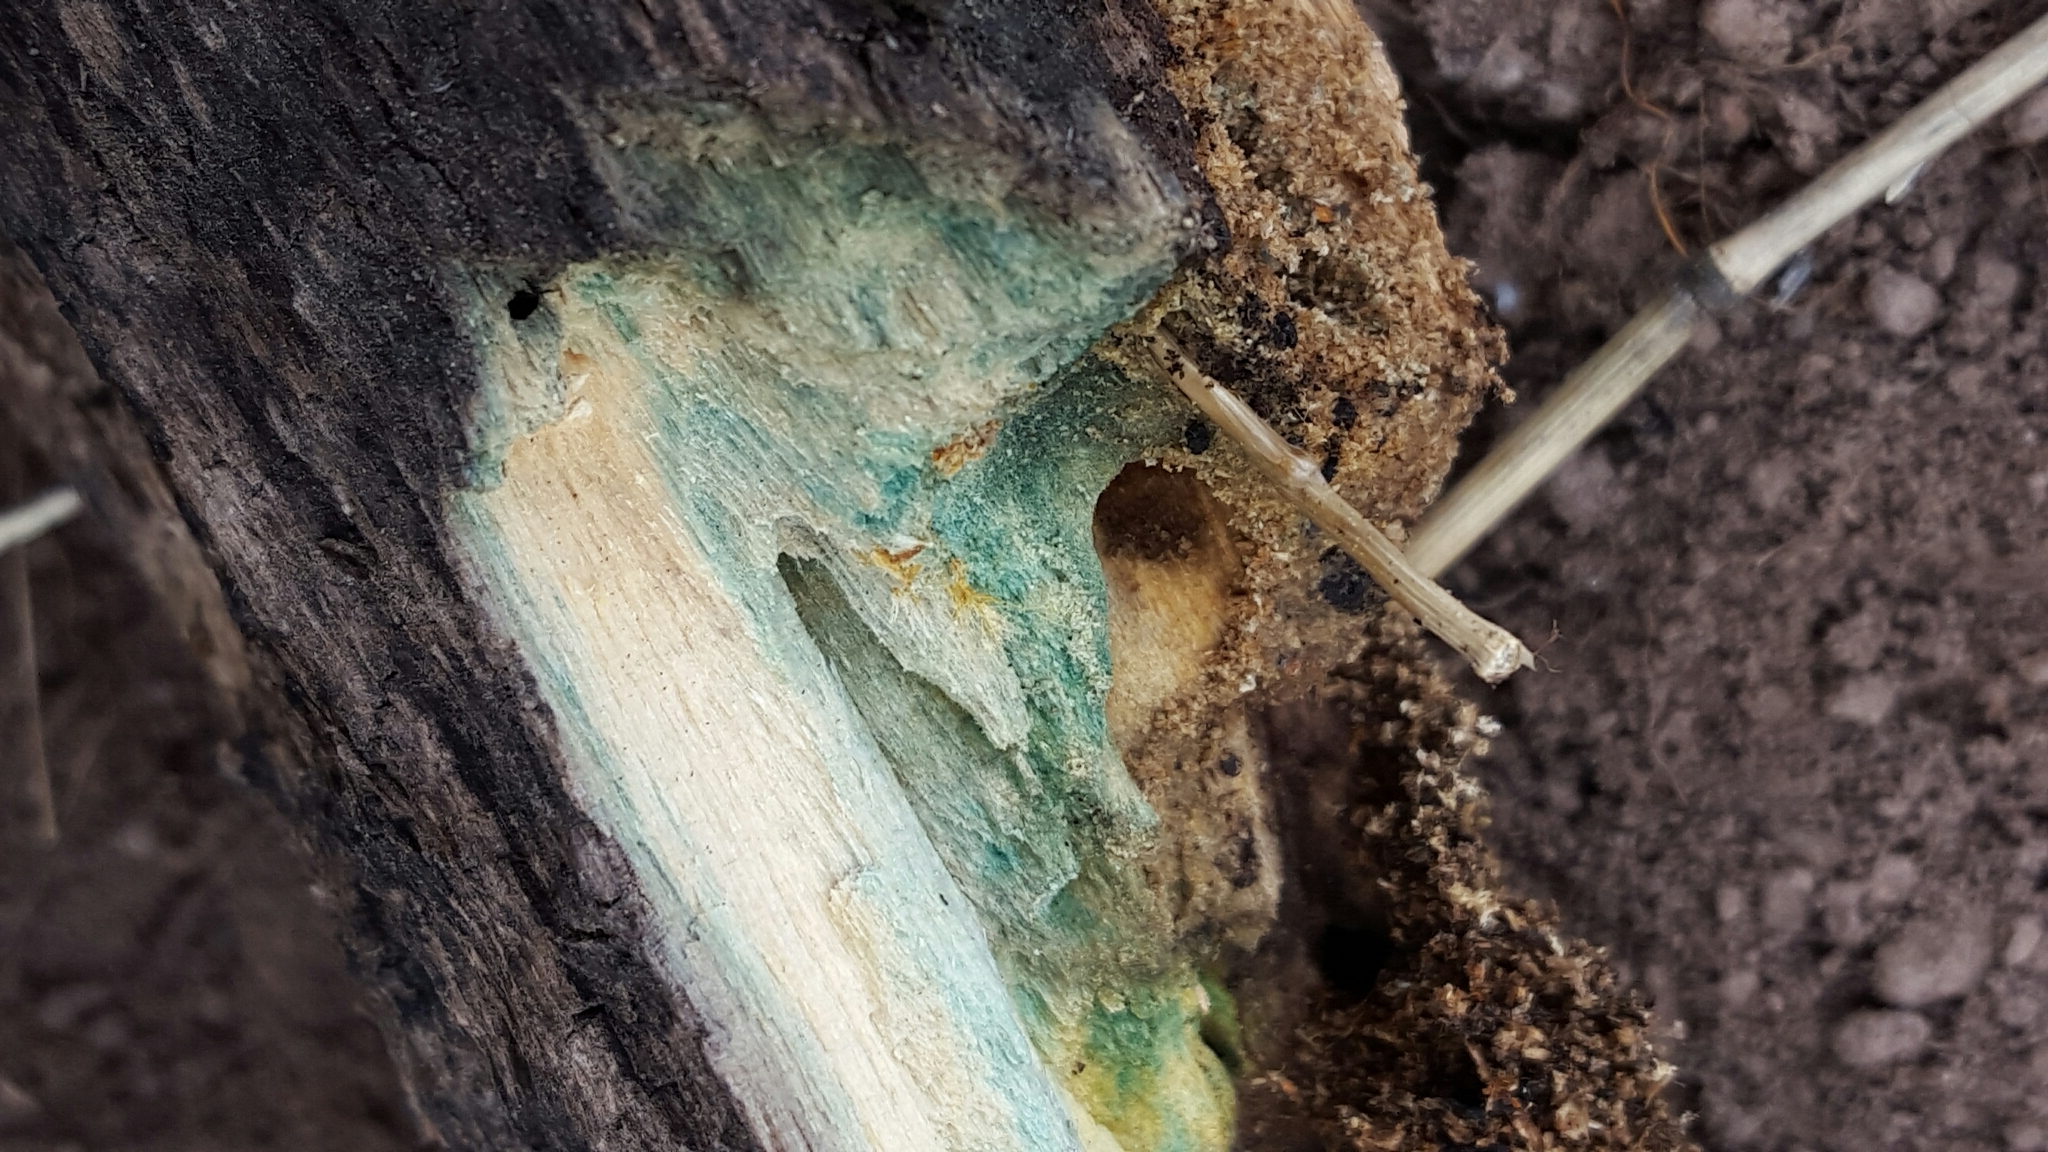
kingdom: Fungi
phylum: Ascomycota
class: Leotiomycetes
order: Helotiales
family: Chlorociboriaceae
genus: Chlorociboria
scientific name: Chlorociboria
